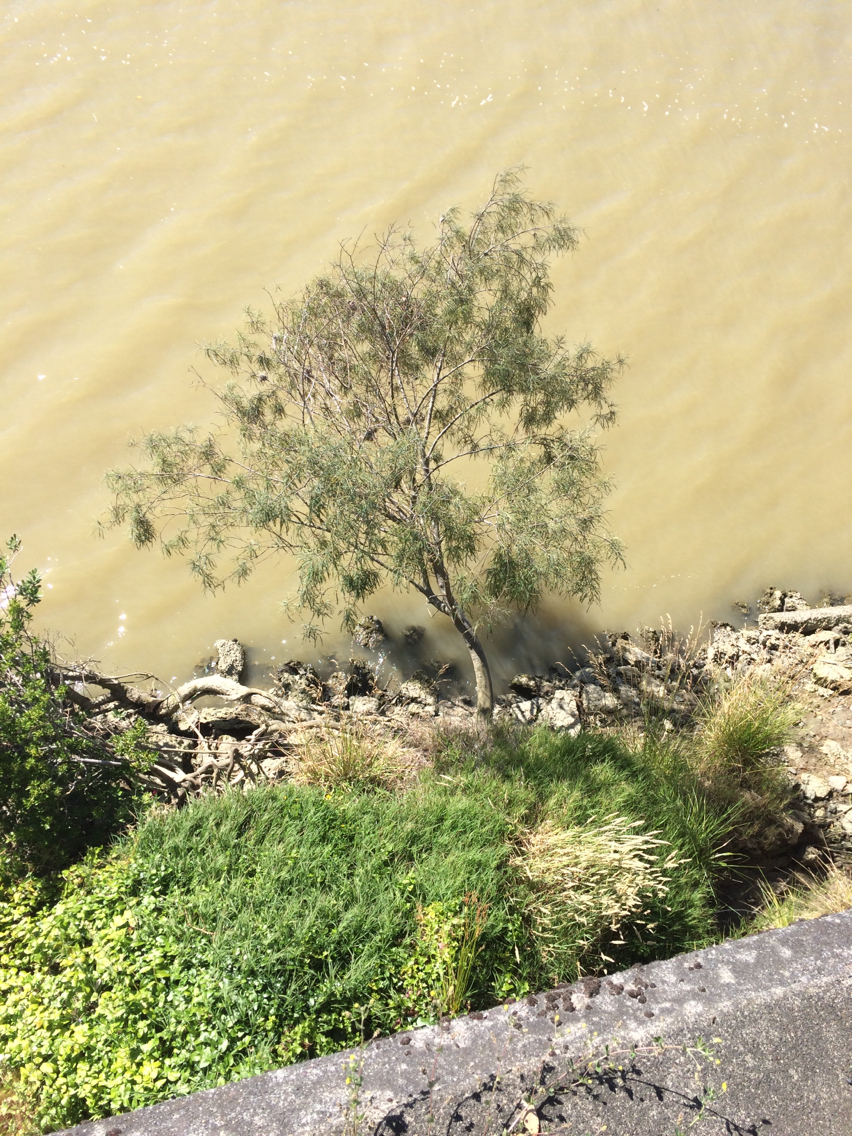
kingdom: Plantae
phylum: Tracheophyta
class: Magnoliopsida
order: Fabales
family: Fabaceae
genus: Sophora
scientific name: Sophora godleyi
